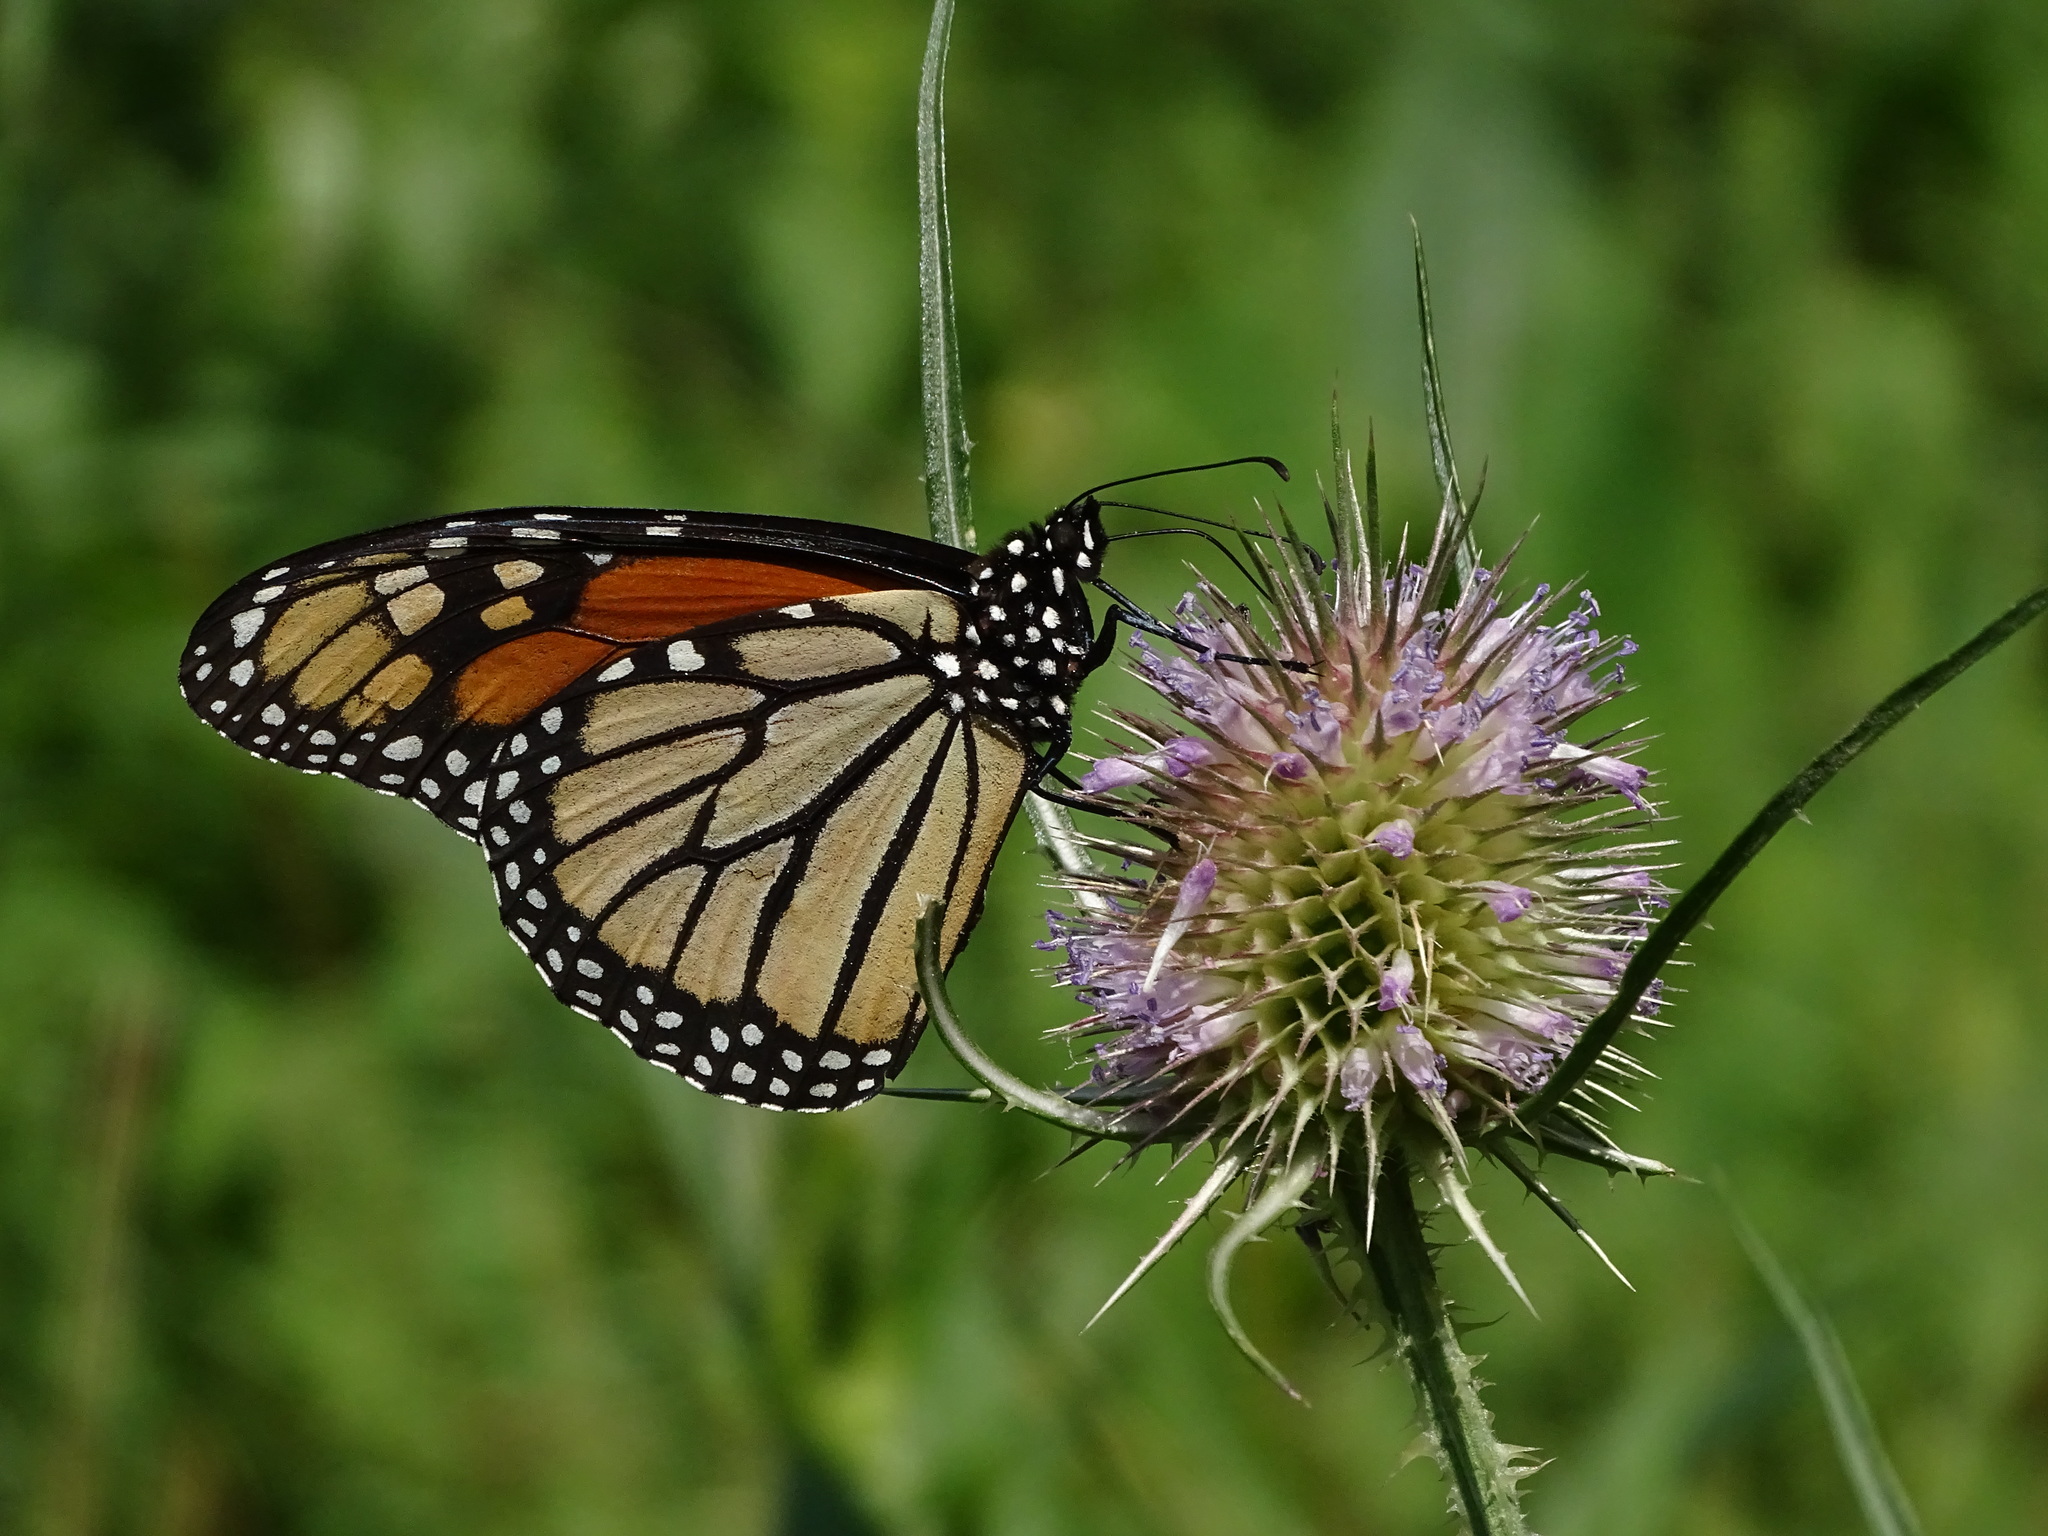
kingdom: Animalia
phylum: Arthropoda
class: Insecta
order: Lepidoptera
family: Nymphalidae
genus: Danaus
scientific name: Danaus plexippus
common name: Monarch
